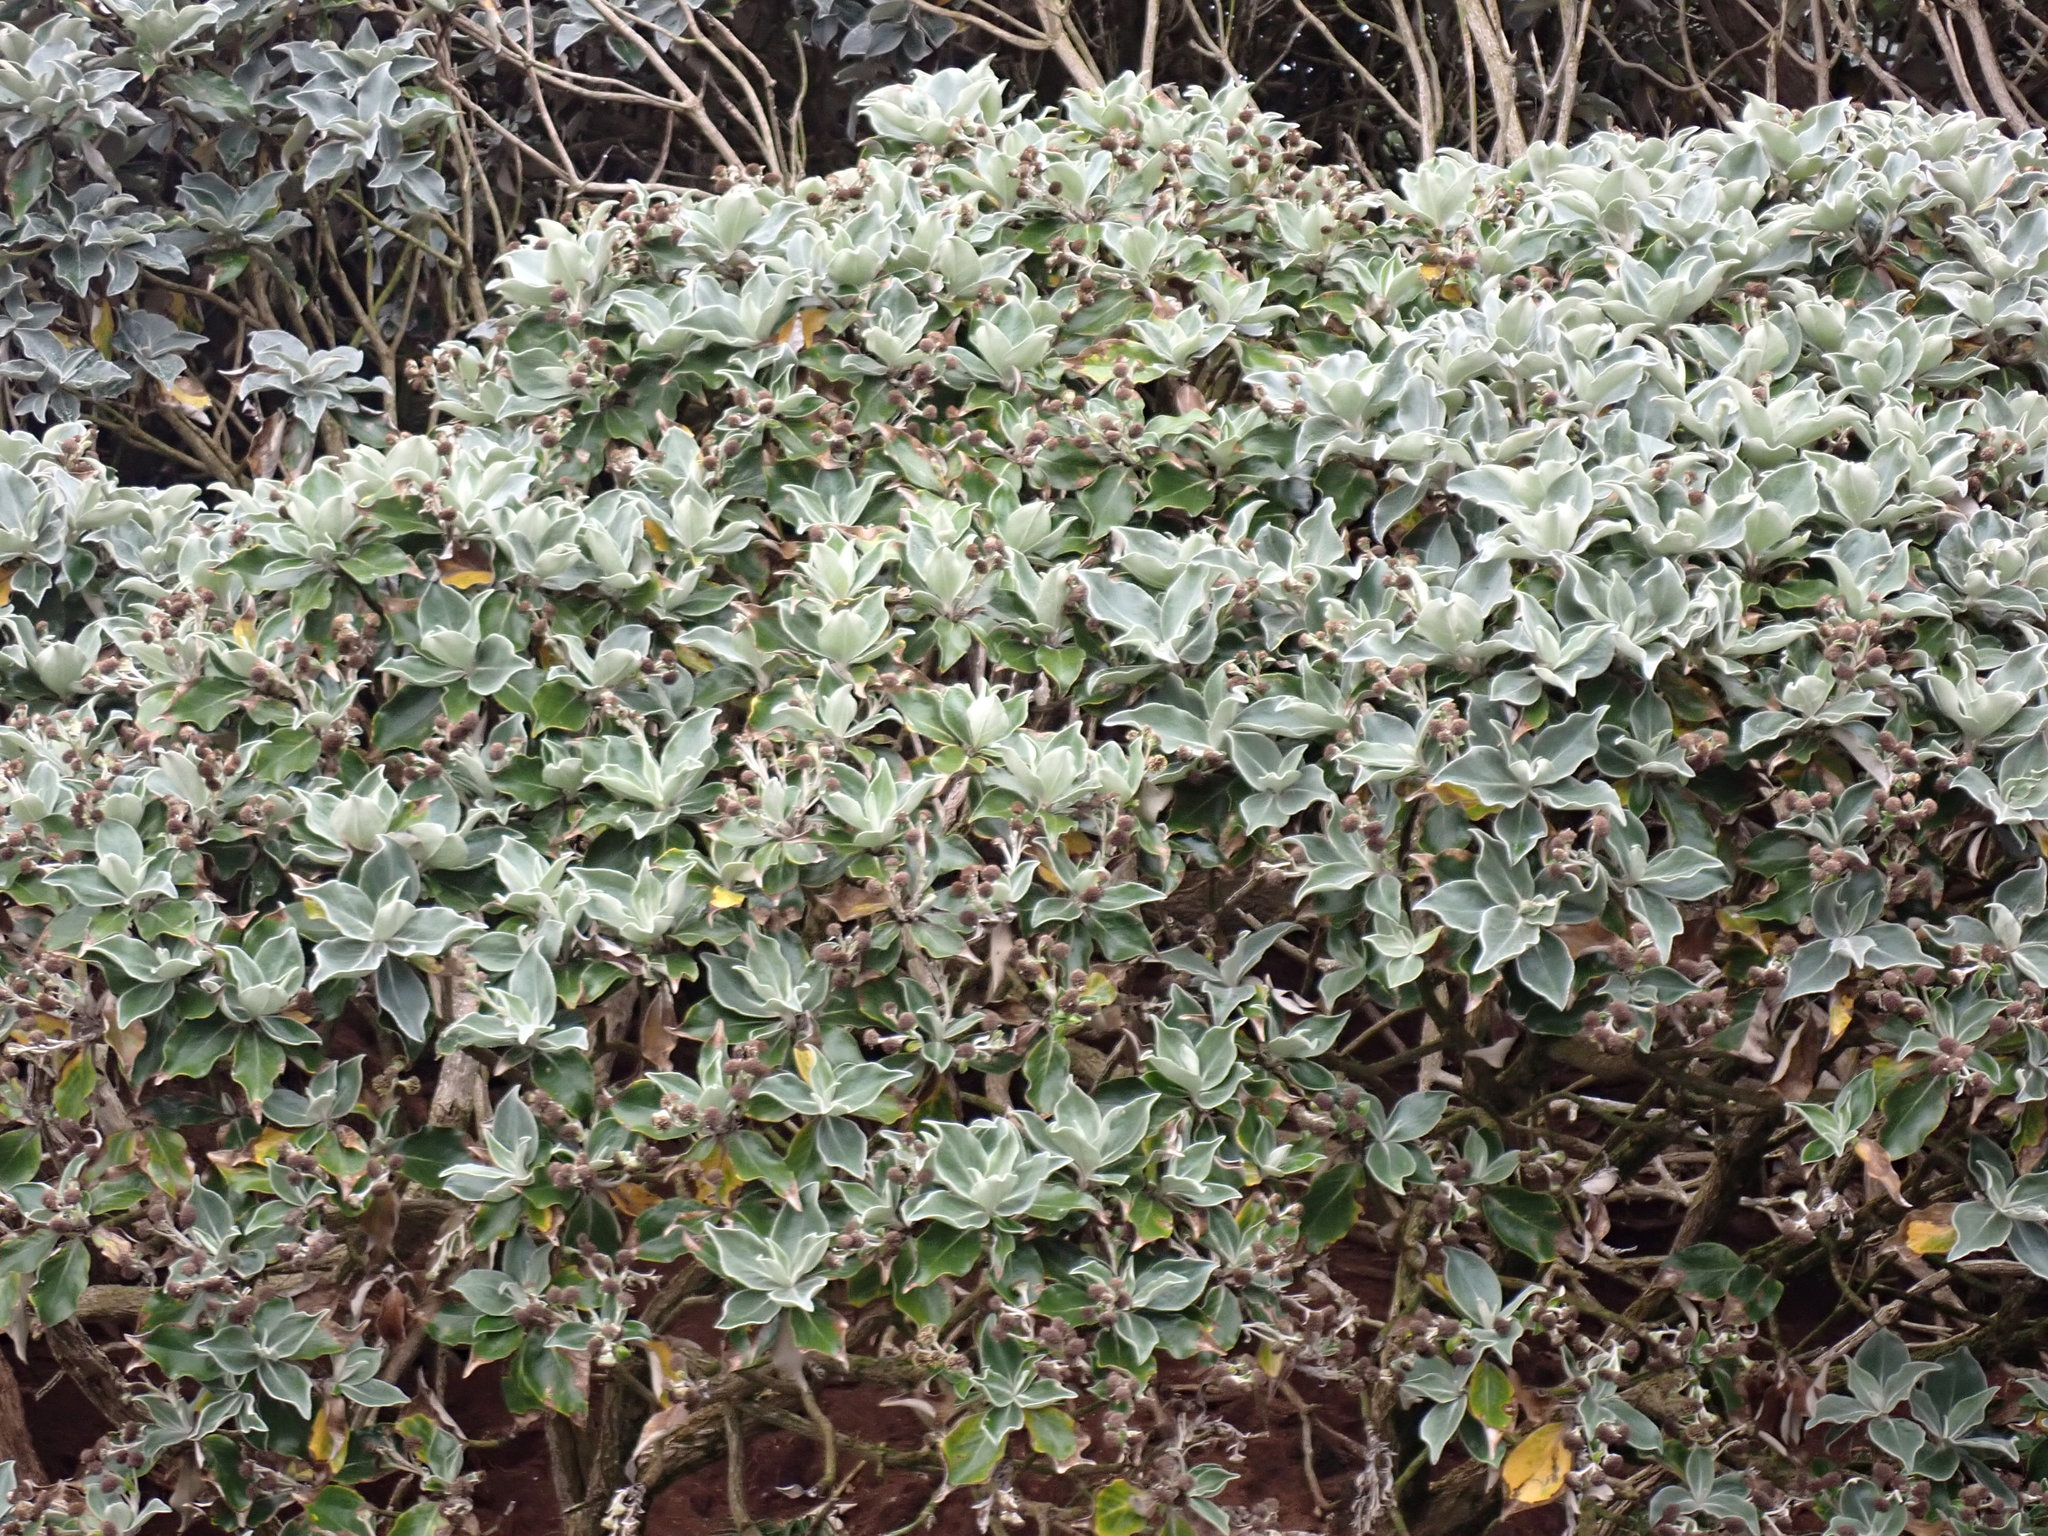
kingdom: Plantae
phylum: Tracheophyta
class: Magnoliopsida
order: Asterales
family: Asteraceae
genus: Macrolearia
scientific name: Macrolearia lyallii
